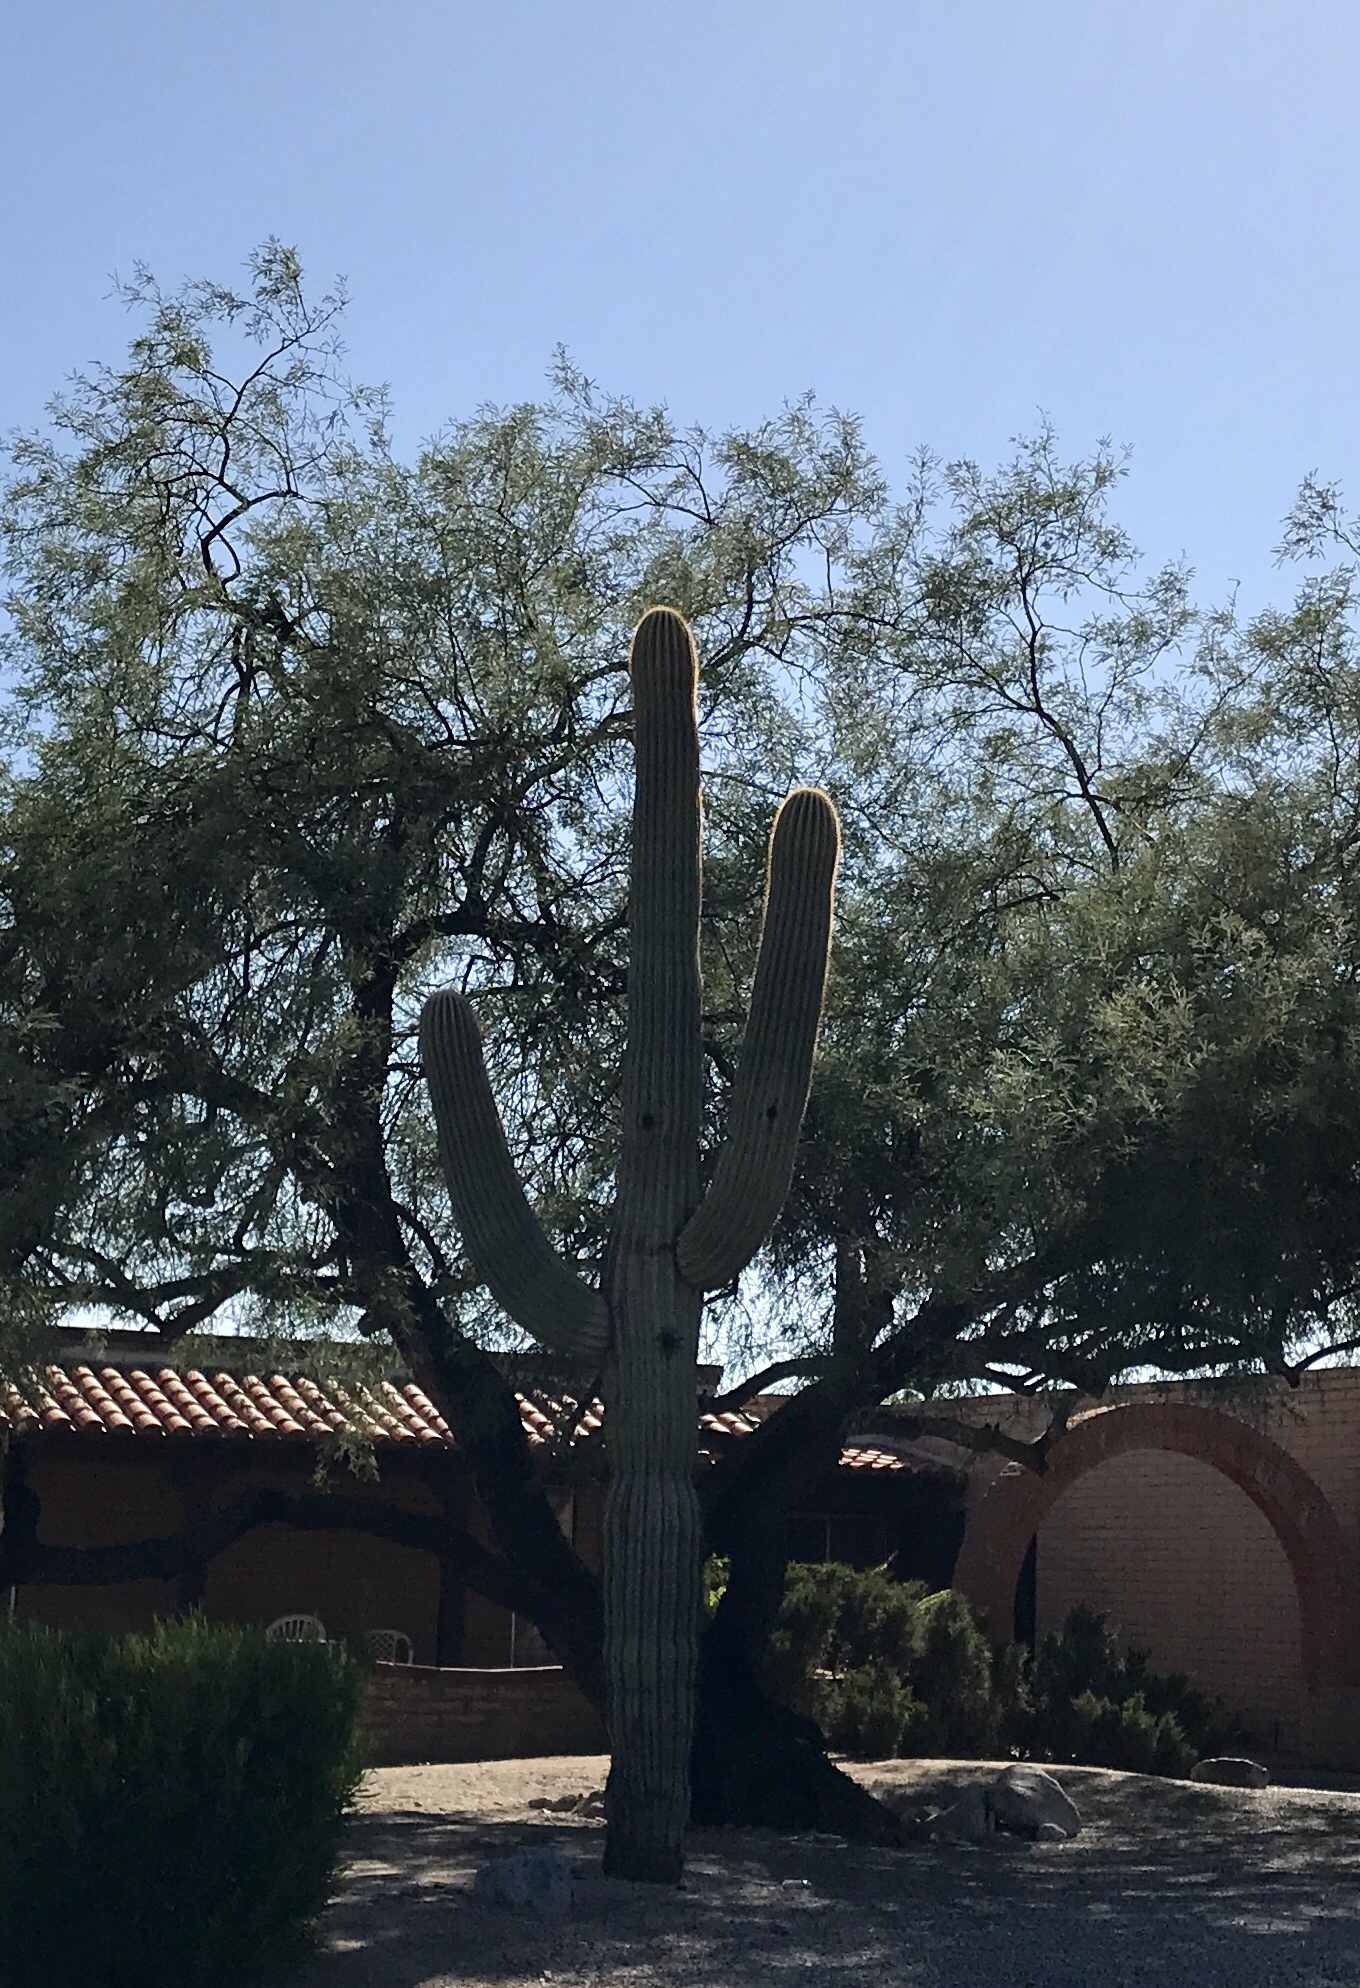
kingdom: Plantae
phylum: Tracheophyta
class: Magnoliopsida
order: Caryophyllales
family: Cactaceae
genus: Carnegiea
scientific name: Carnegiea gigantea
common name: Saguaro
